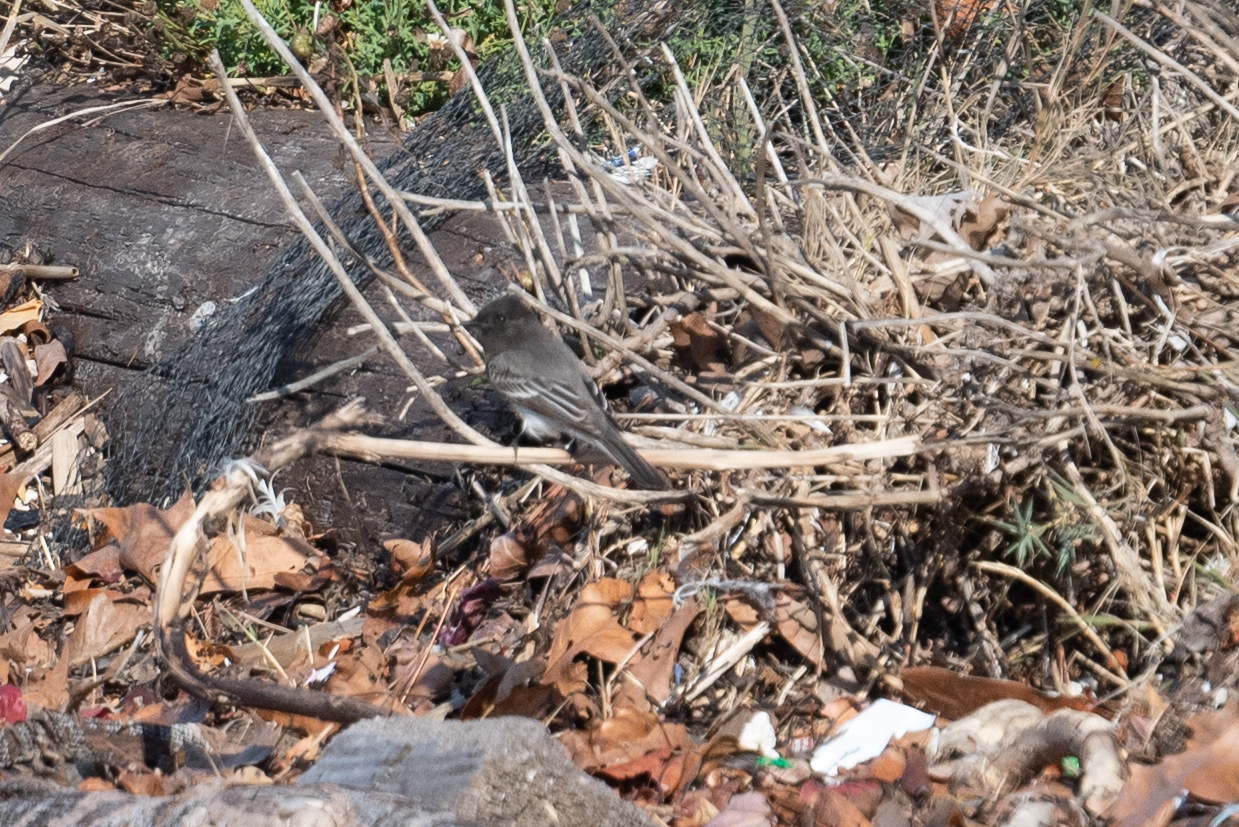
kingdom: Animalia
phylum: Chordata
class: Aves
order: Passeriformes
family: Tyrannidae
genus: Sayornis
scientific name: Sayornis nigricans
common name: Black phoebe
